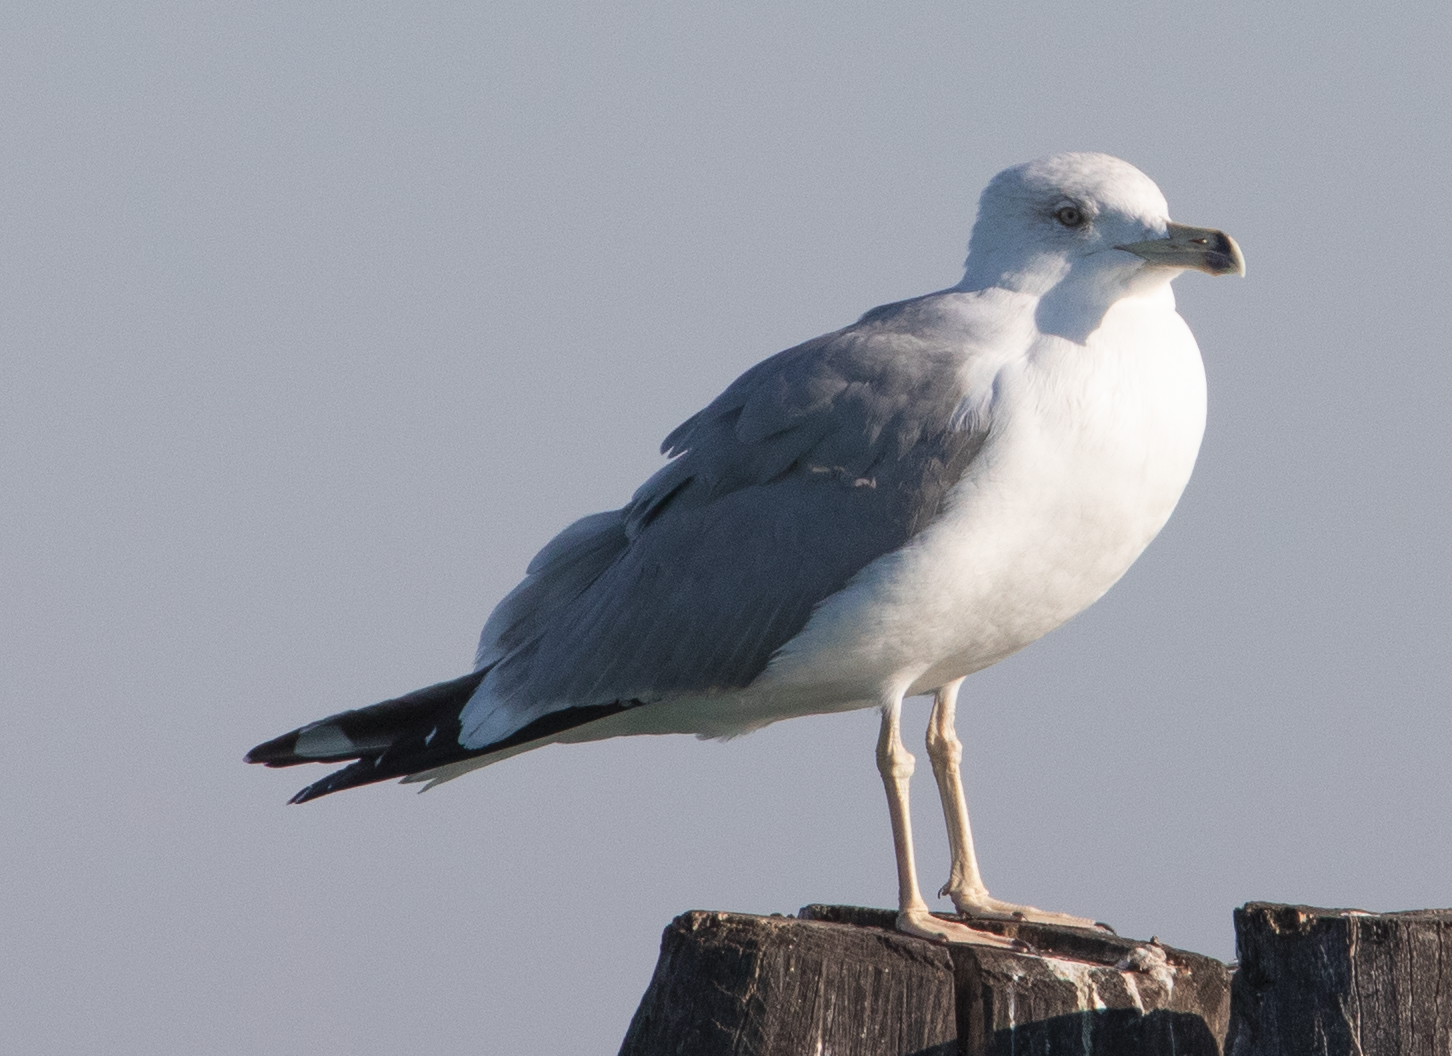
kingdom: Animalia
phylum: Chordata
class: Aves
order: Charadriiformes
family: Laridae
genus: Larus
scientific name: Larus michahellis
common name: Yellow-legged gull
